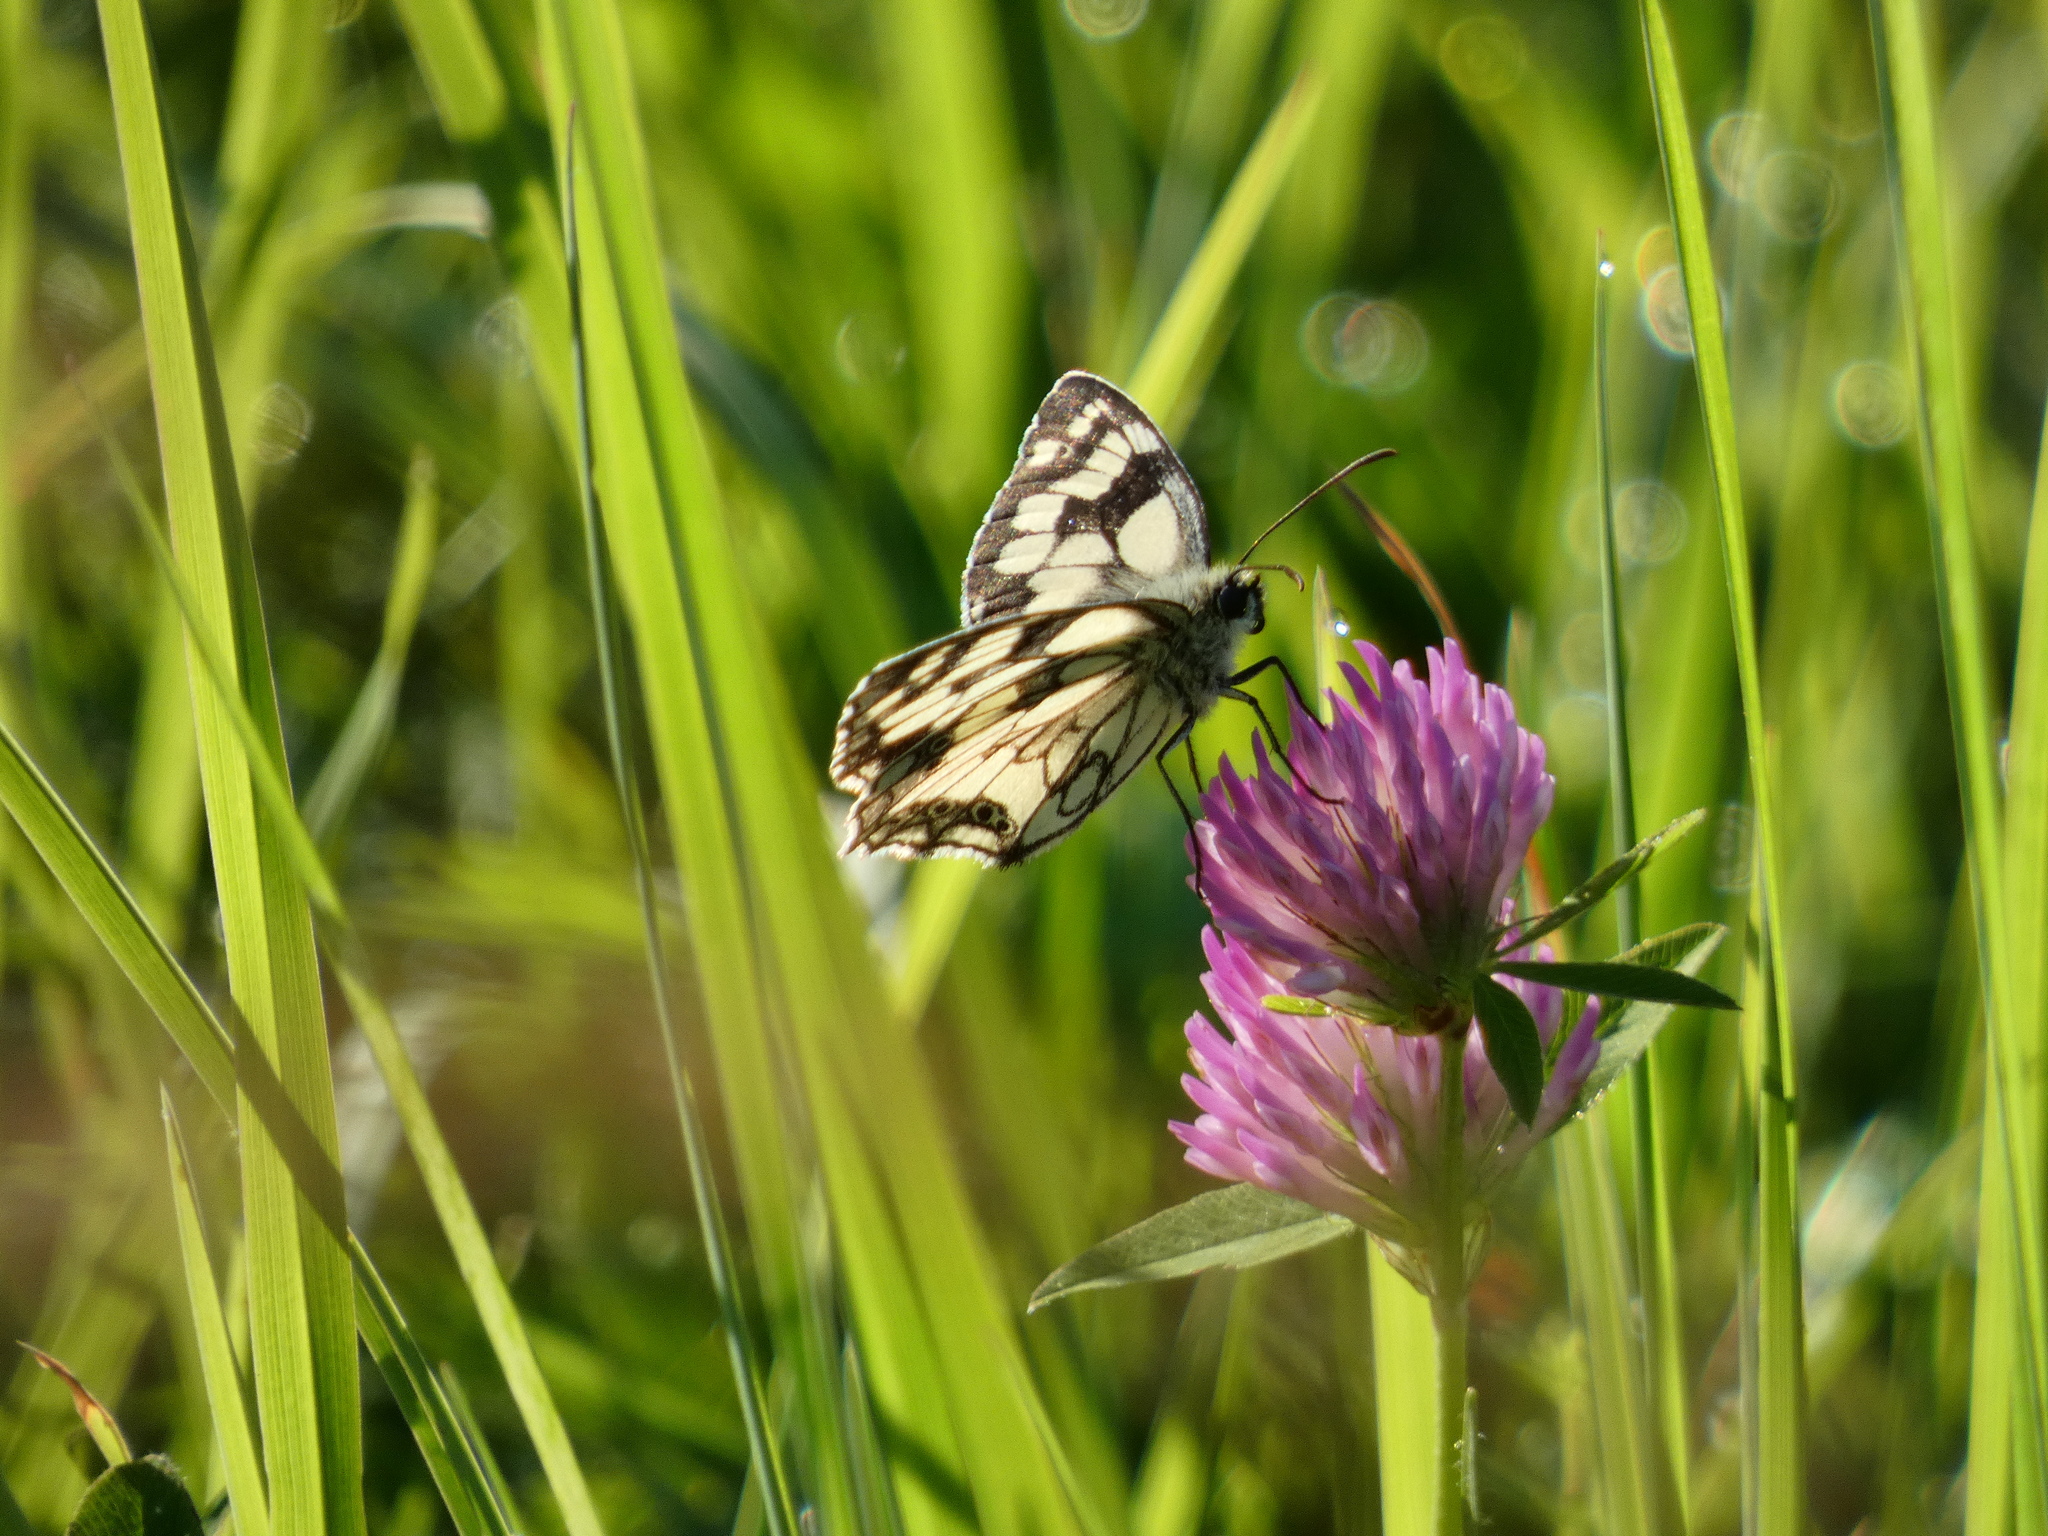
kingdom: Animalia
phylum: Arthropoda
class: Insecta
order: Lepidoptera
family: Nymphalidae
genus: Melanargia
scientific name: Melanargia galathea
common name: Marbled white
